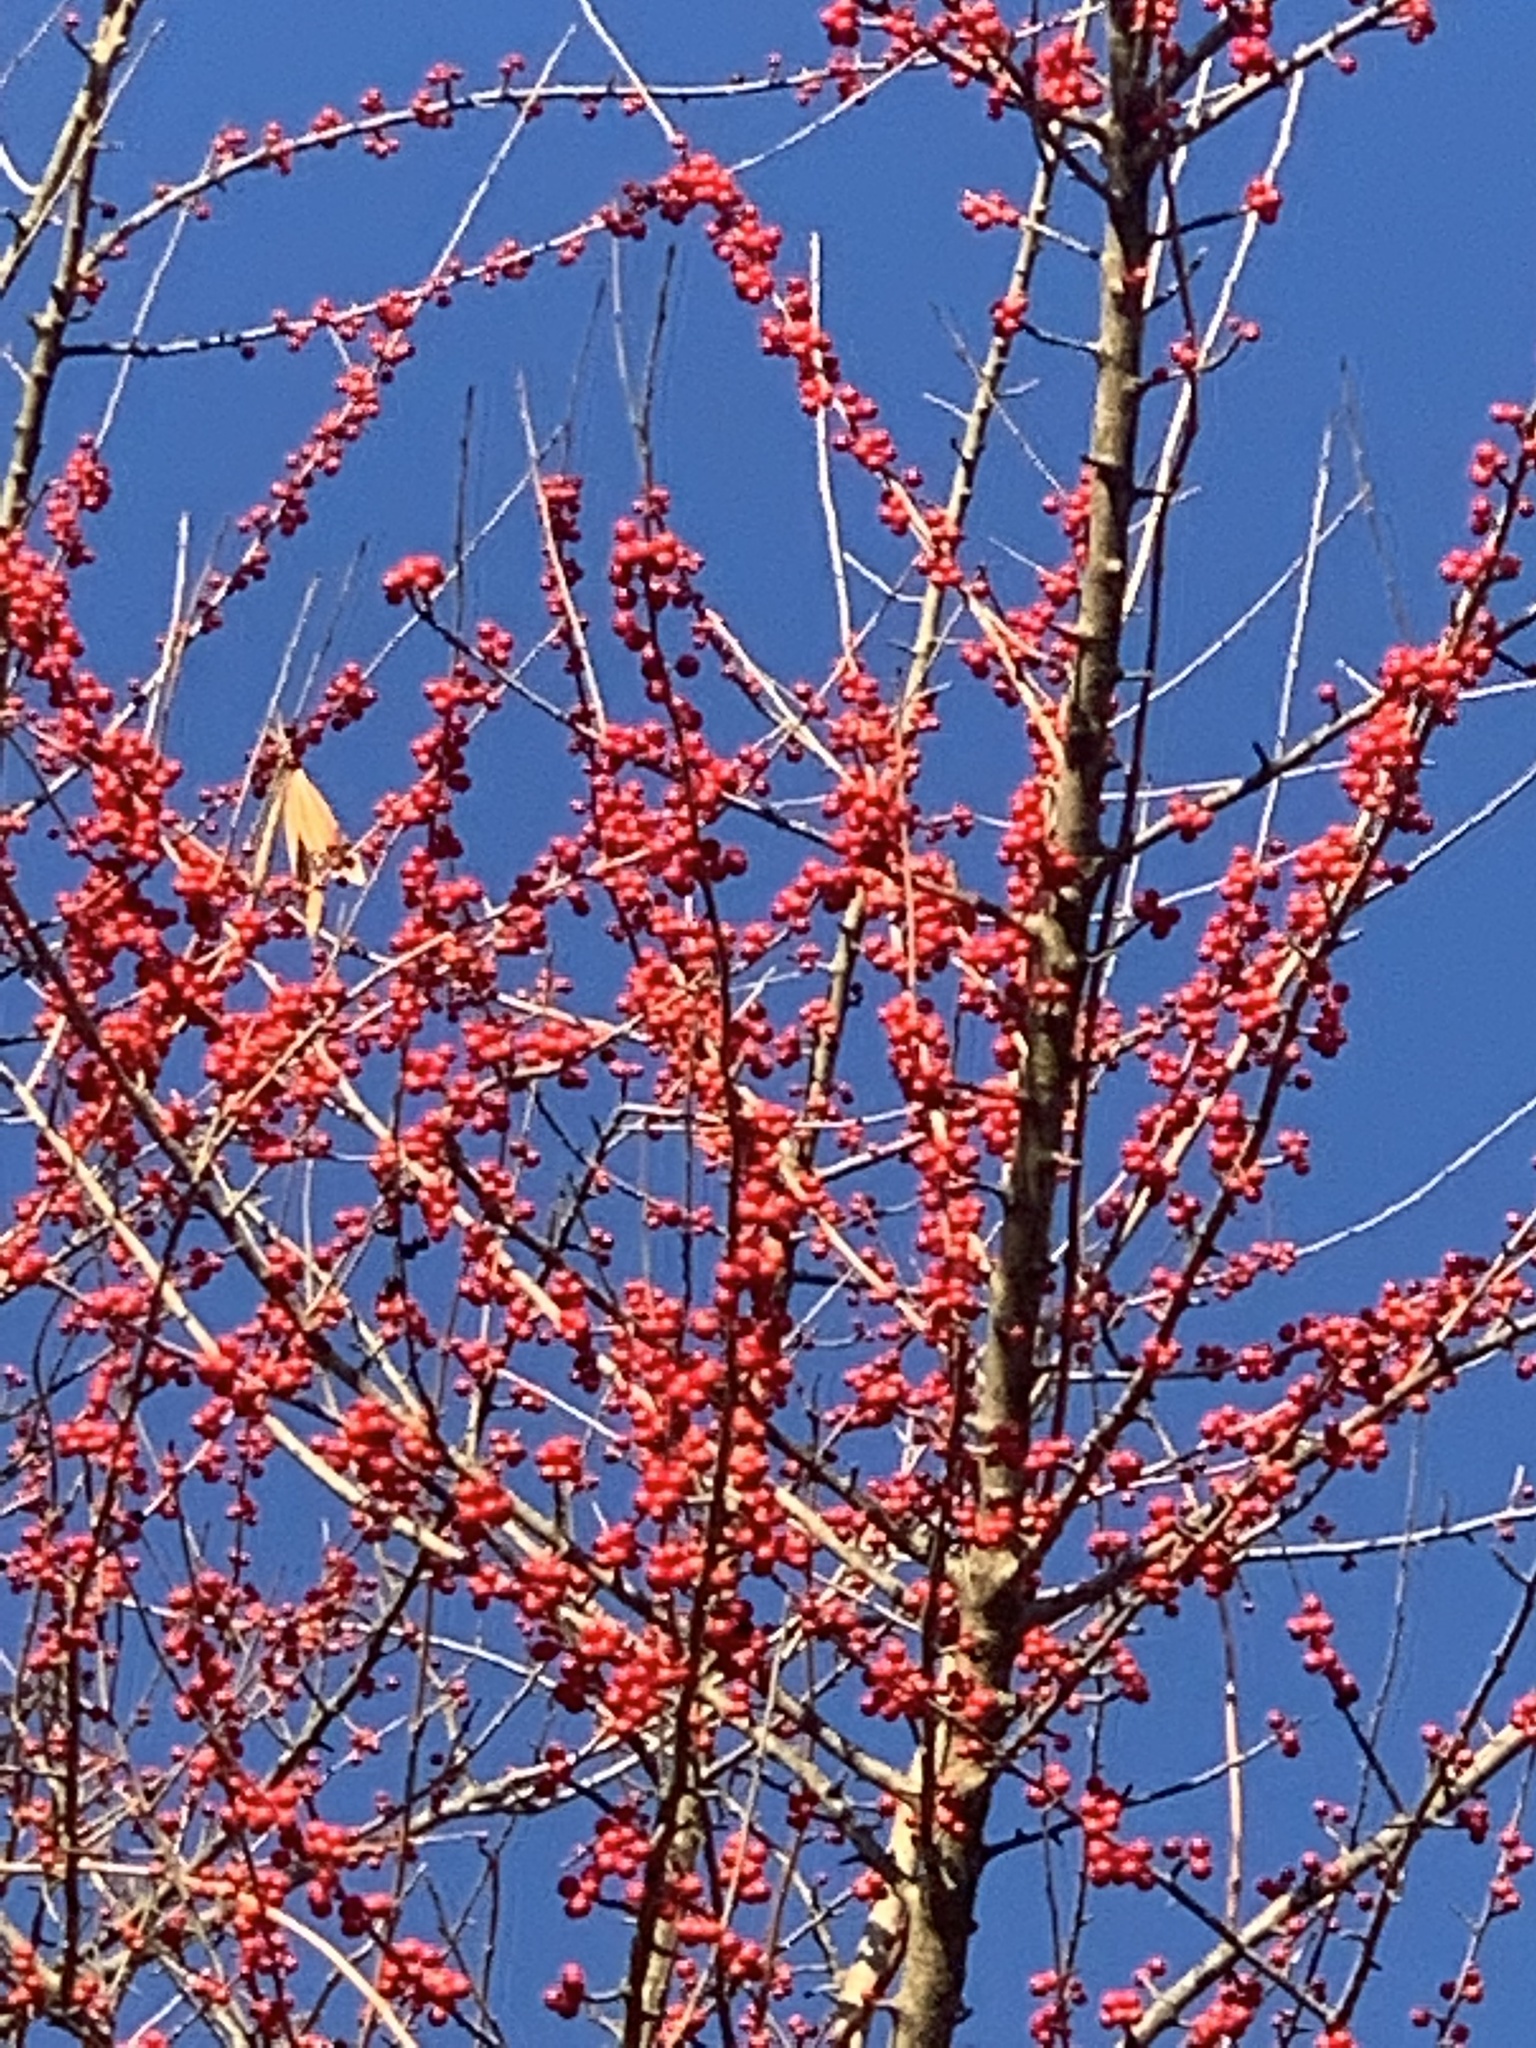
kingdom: Plantae
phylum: Tracheophyta
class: Magnoliopsida
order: Aquifoliales
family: Aquifoliaceae
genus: Ilex
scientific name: Ilex decidua
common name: Possum-haw
